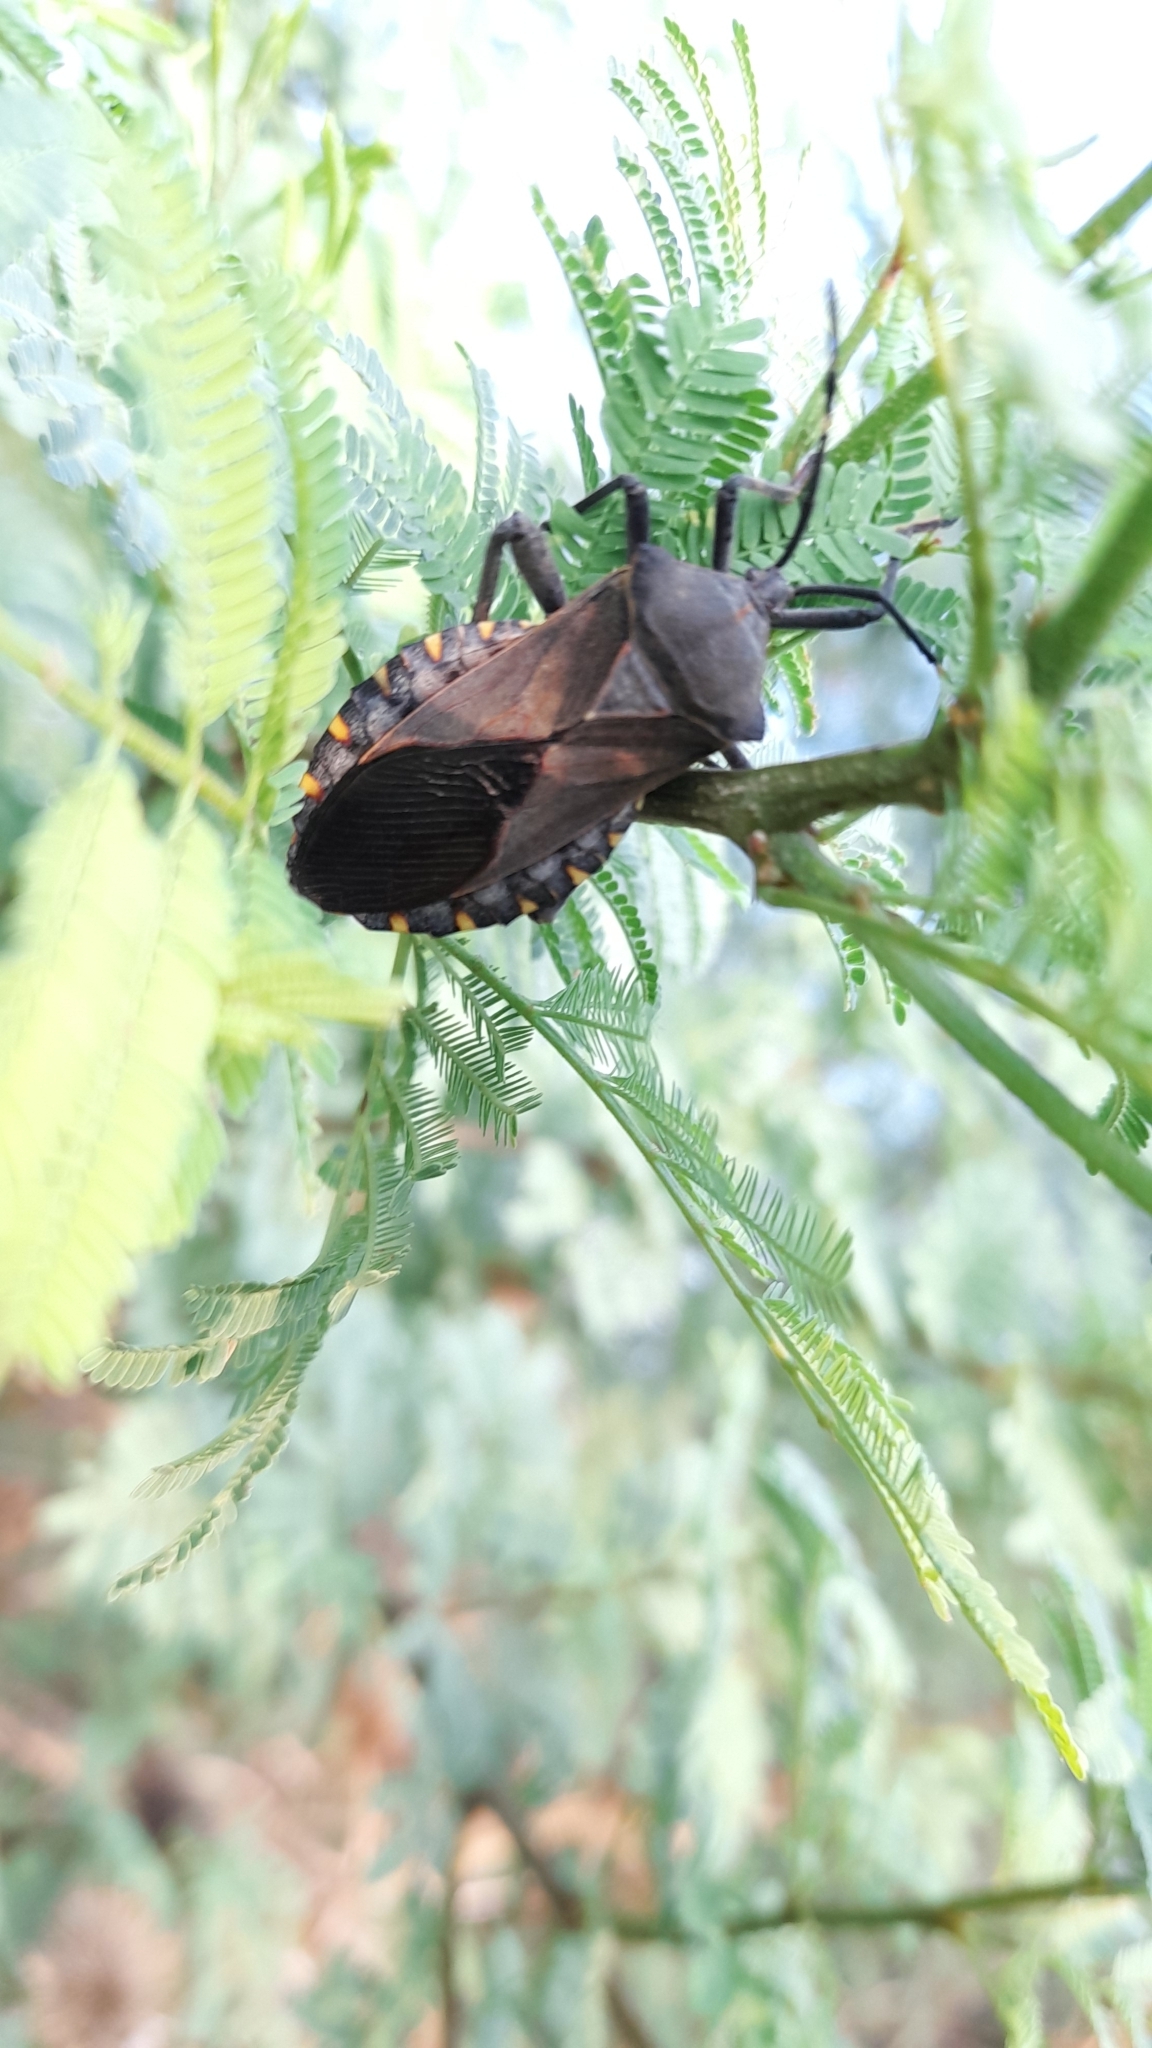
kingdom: Animalia
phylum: Arthropoda
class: Insecta
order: Hemiptera
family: Coreidae
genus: Pachylis
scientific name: Pachylis argentinus
